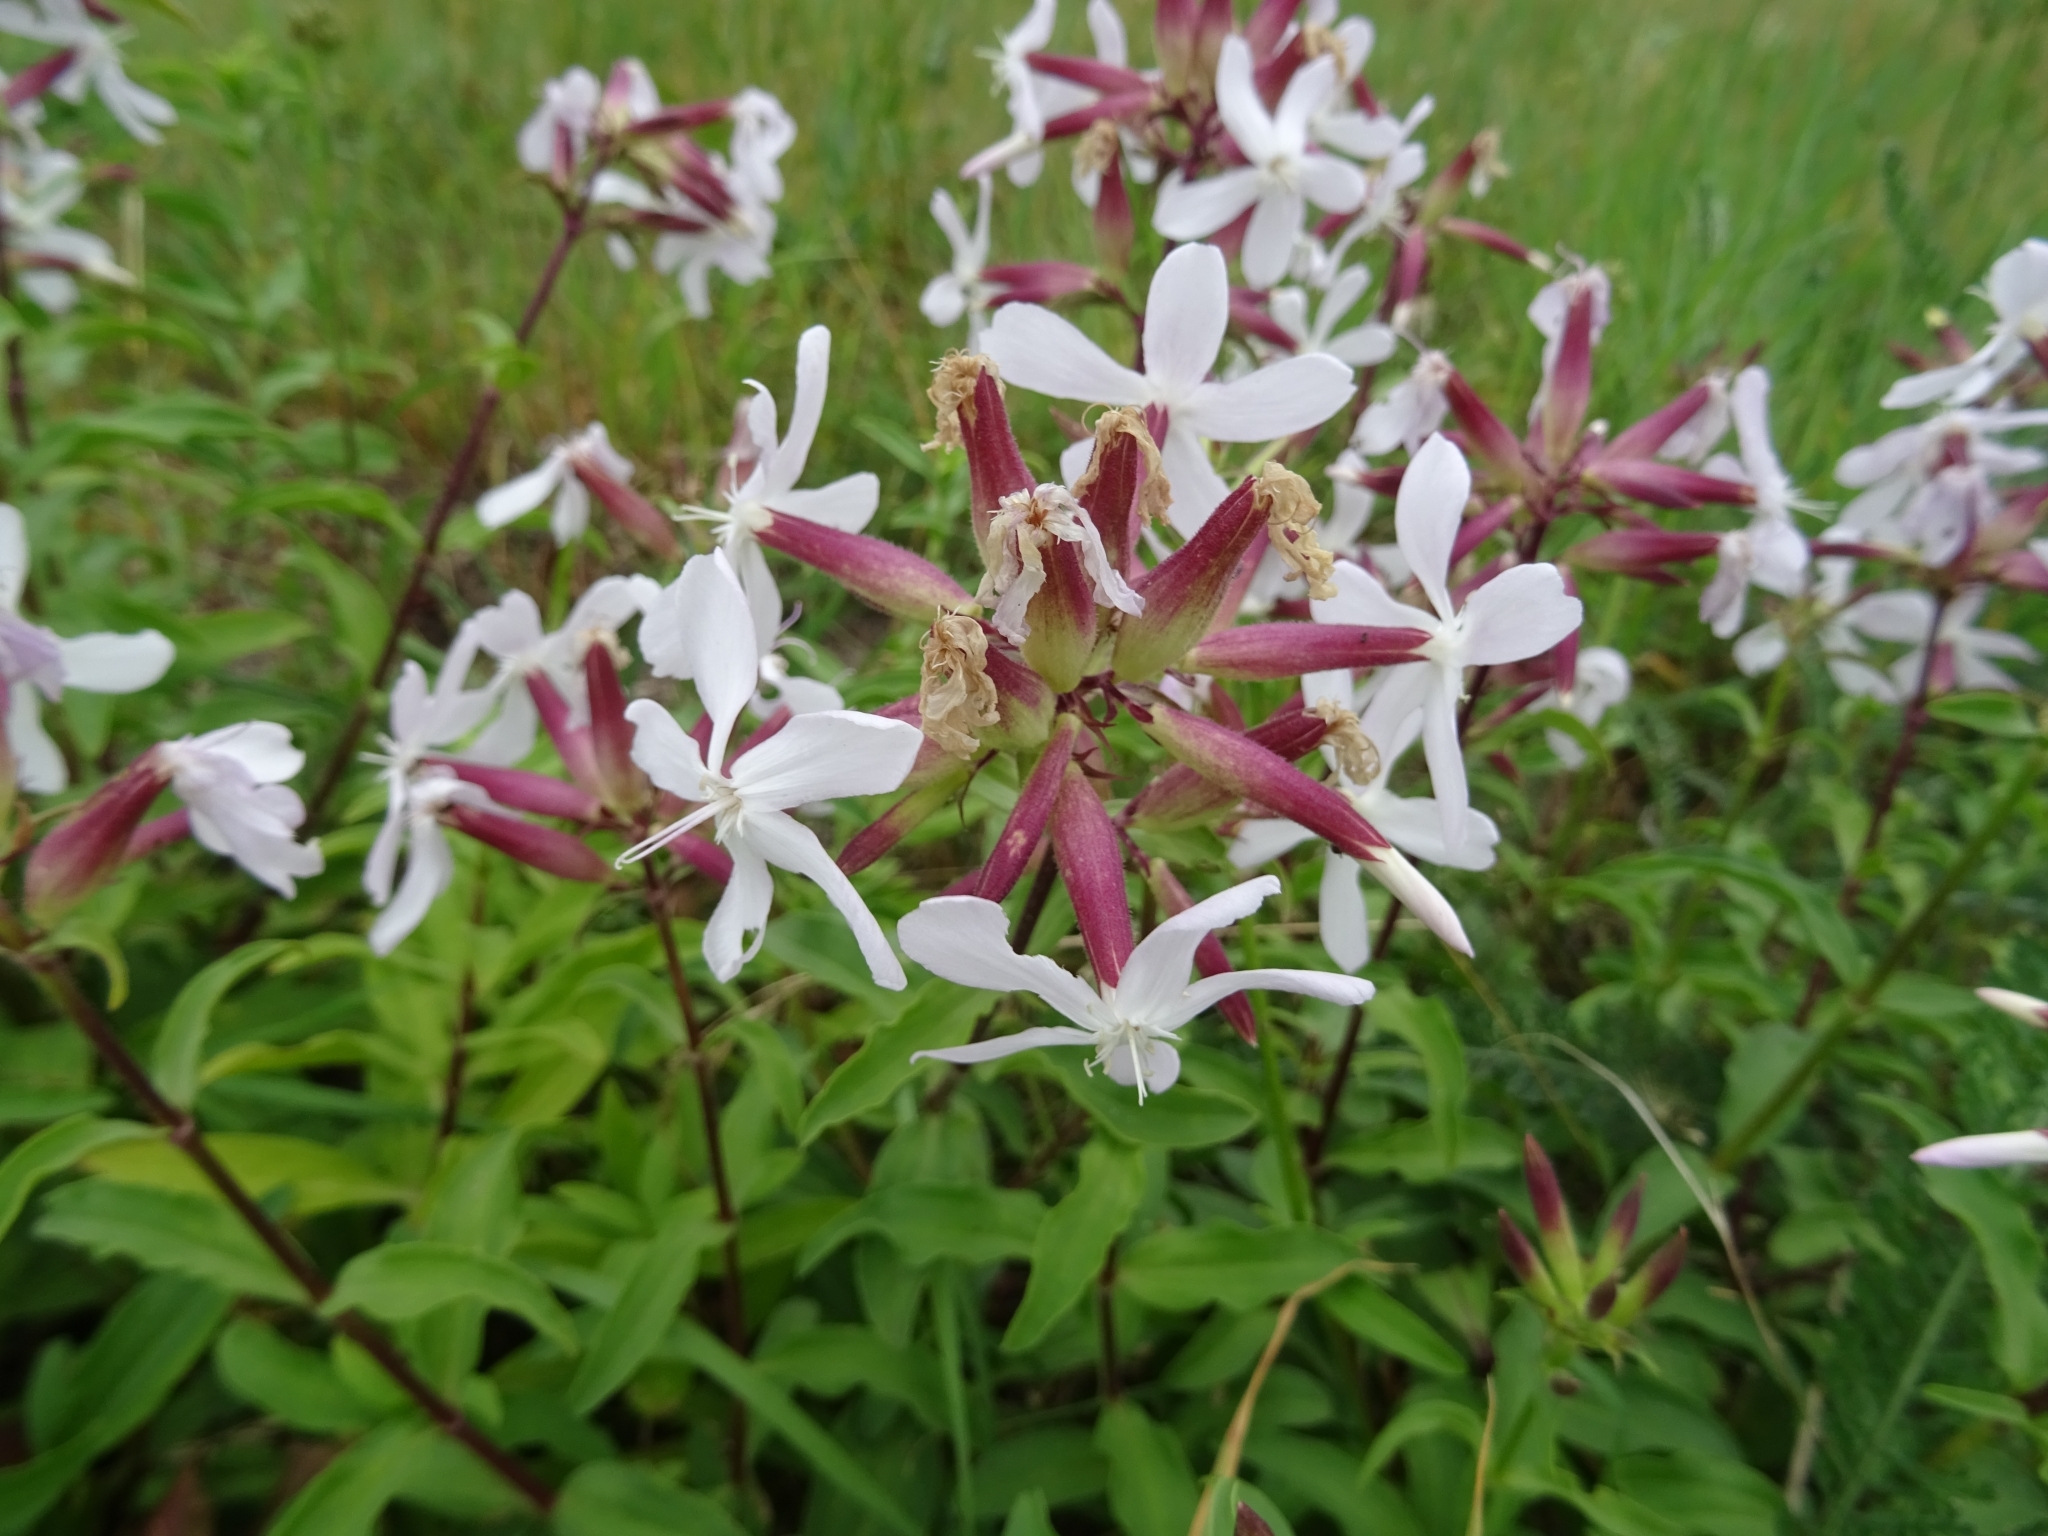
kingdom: Plantae
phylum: Tracheophyta
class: Magnoliopsida
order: Caryophyllales
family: Caryophyllaceae
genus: Saponaria
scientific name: Saponaria officinalis
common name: Soapwort
